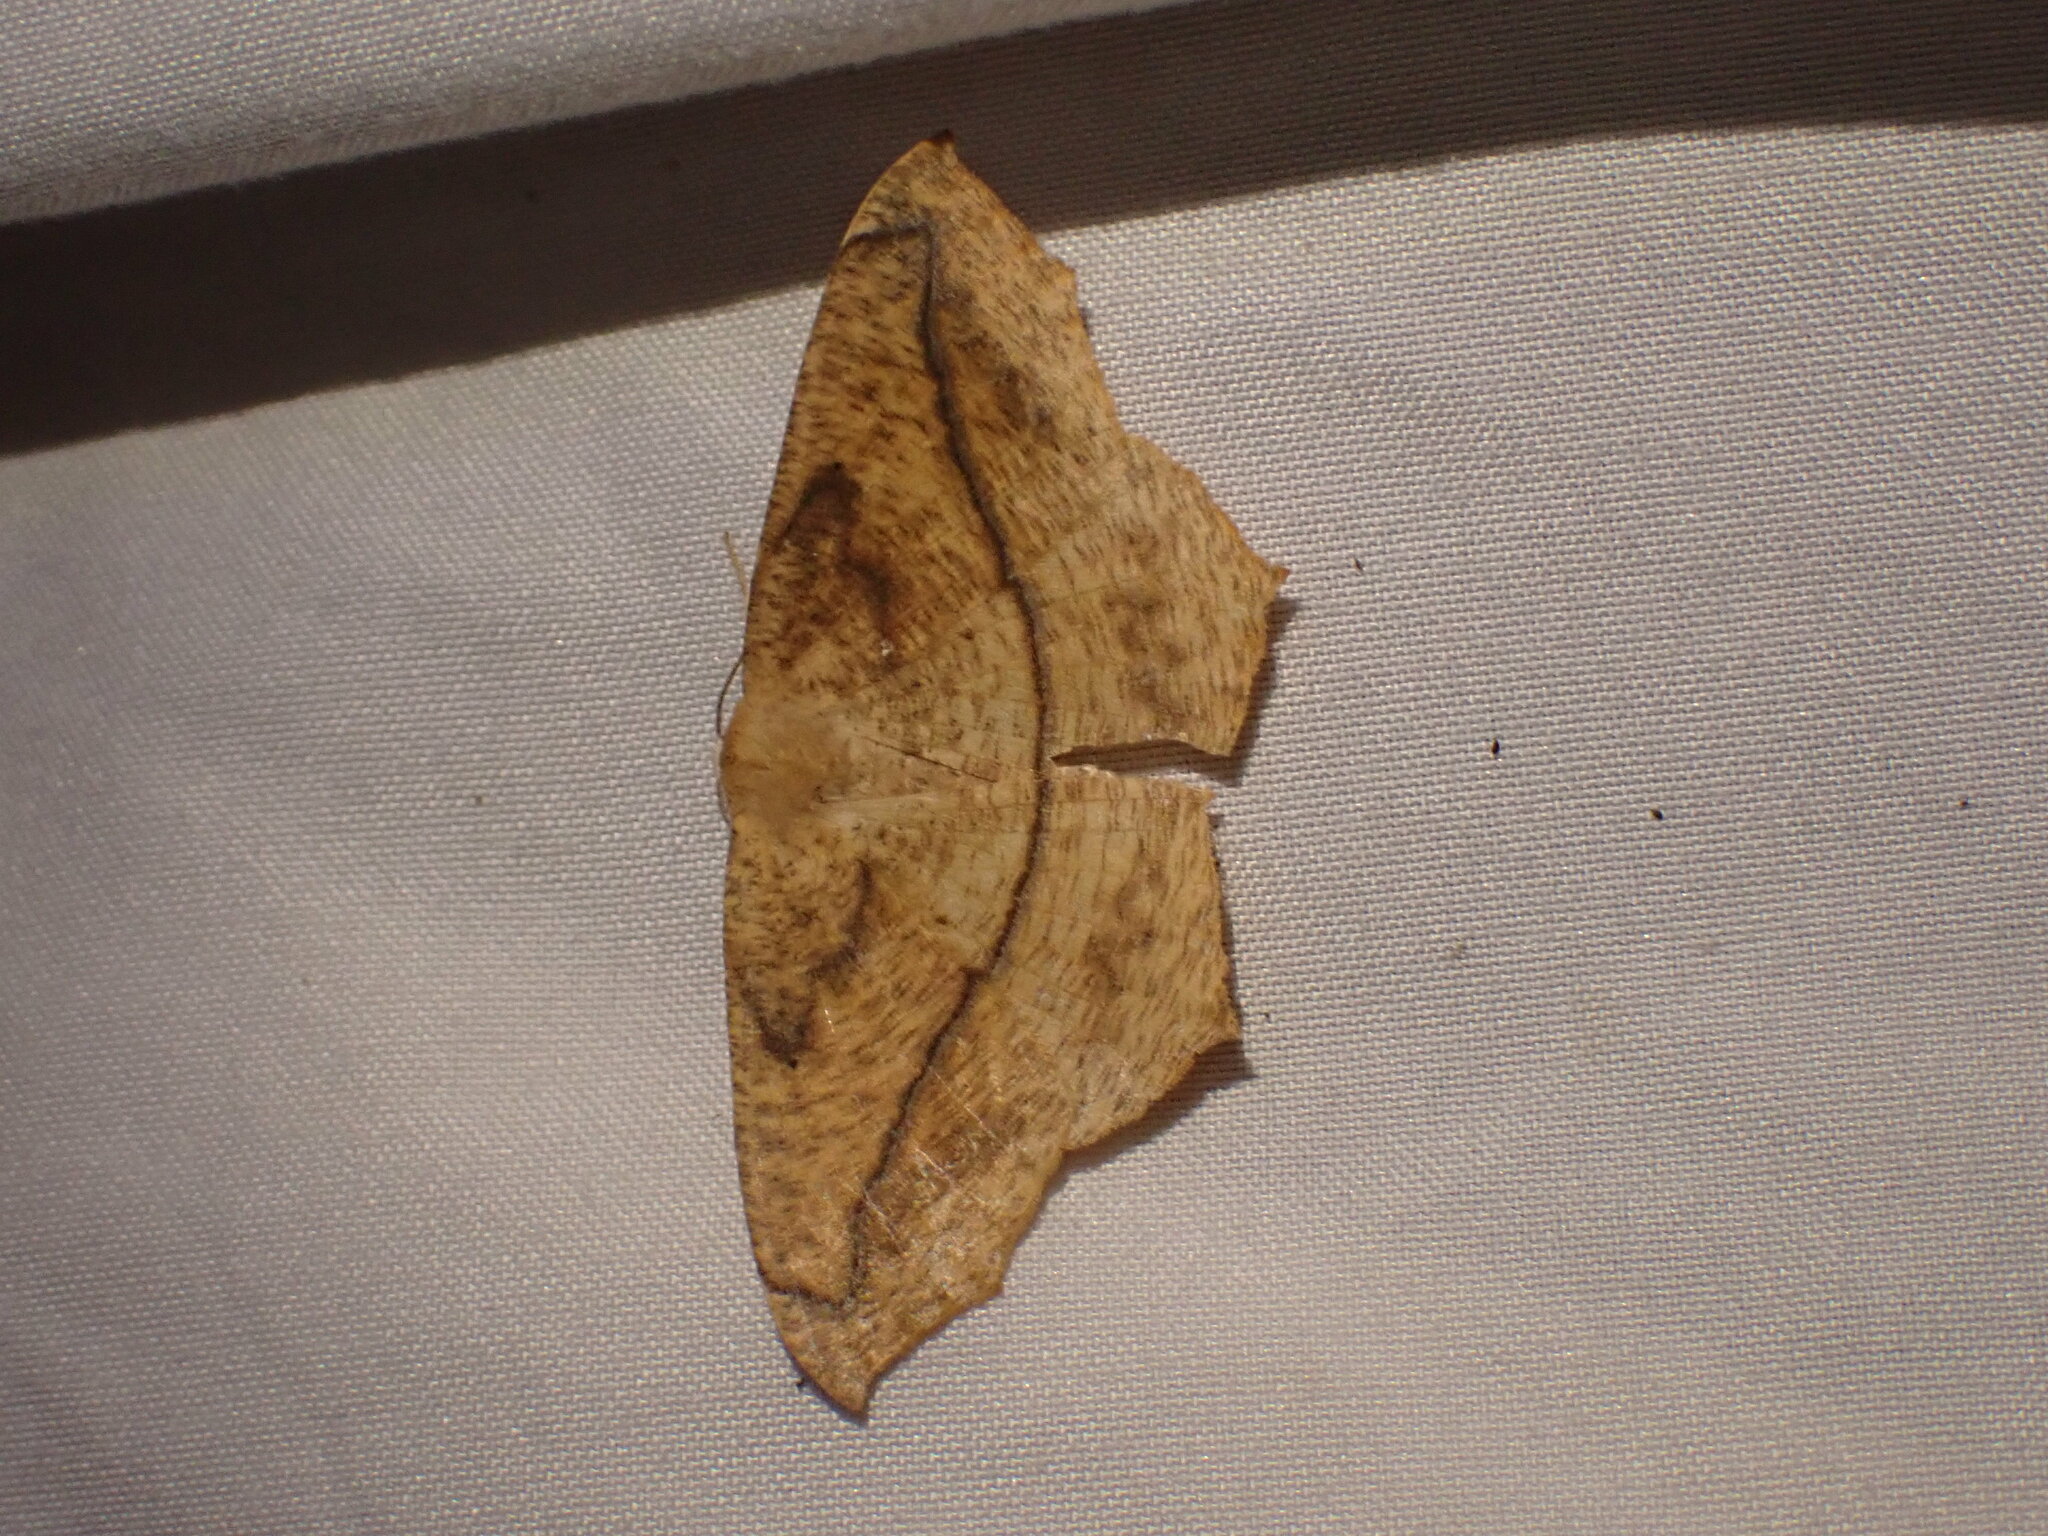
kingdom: Animalia
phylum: Arthropoda
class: Insecta
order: Lepidoptera
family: Geometridae
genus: Prochoerodes
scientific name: Prochoerodes lineola
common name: Large maple spanworm
